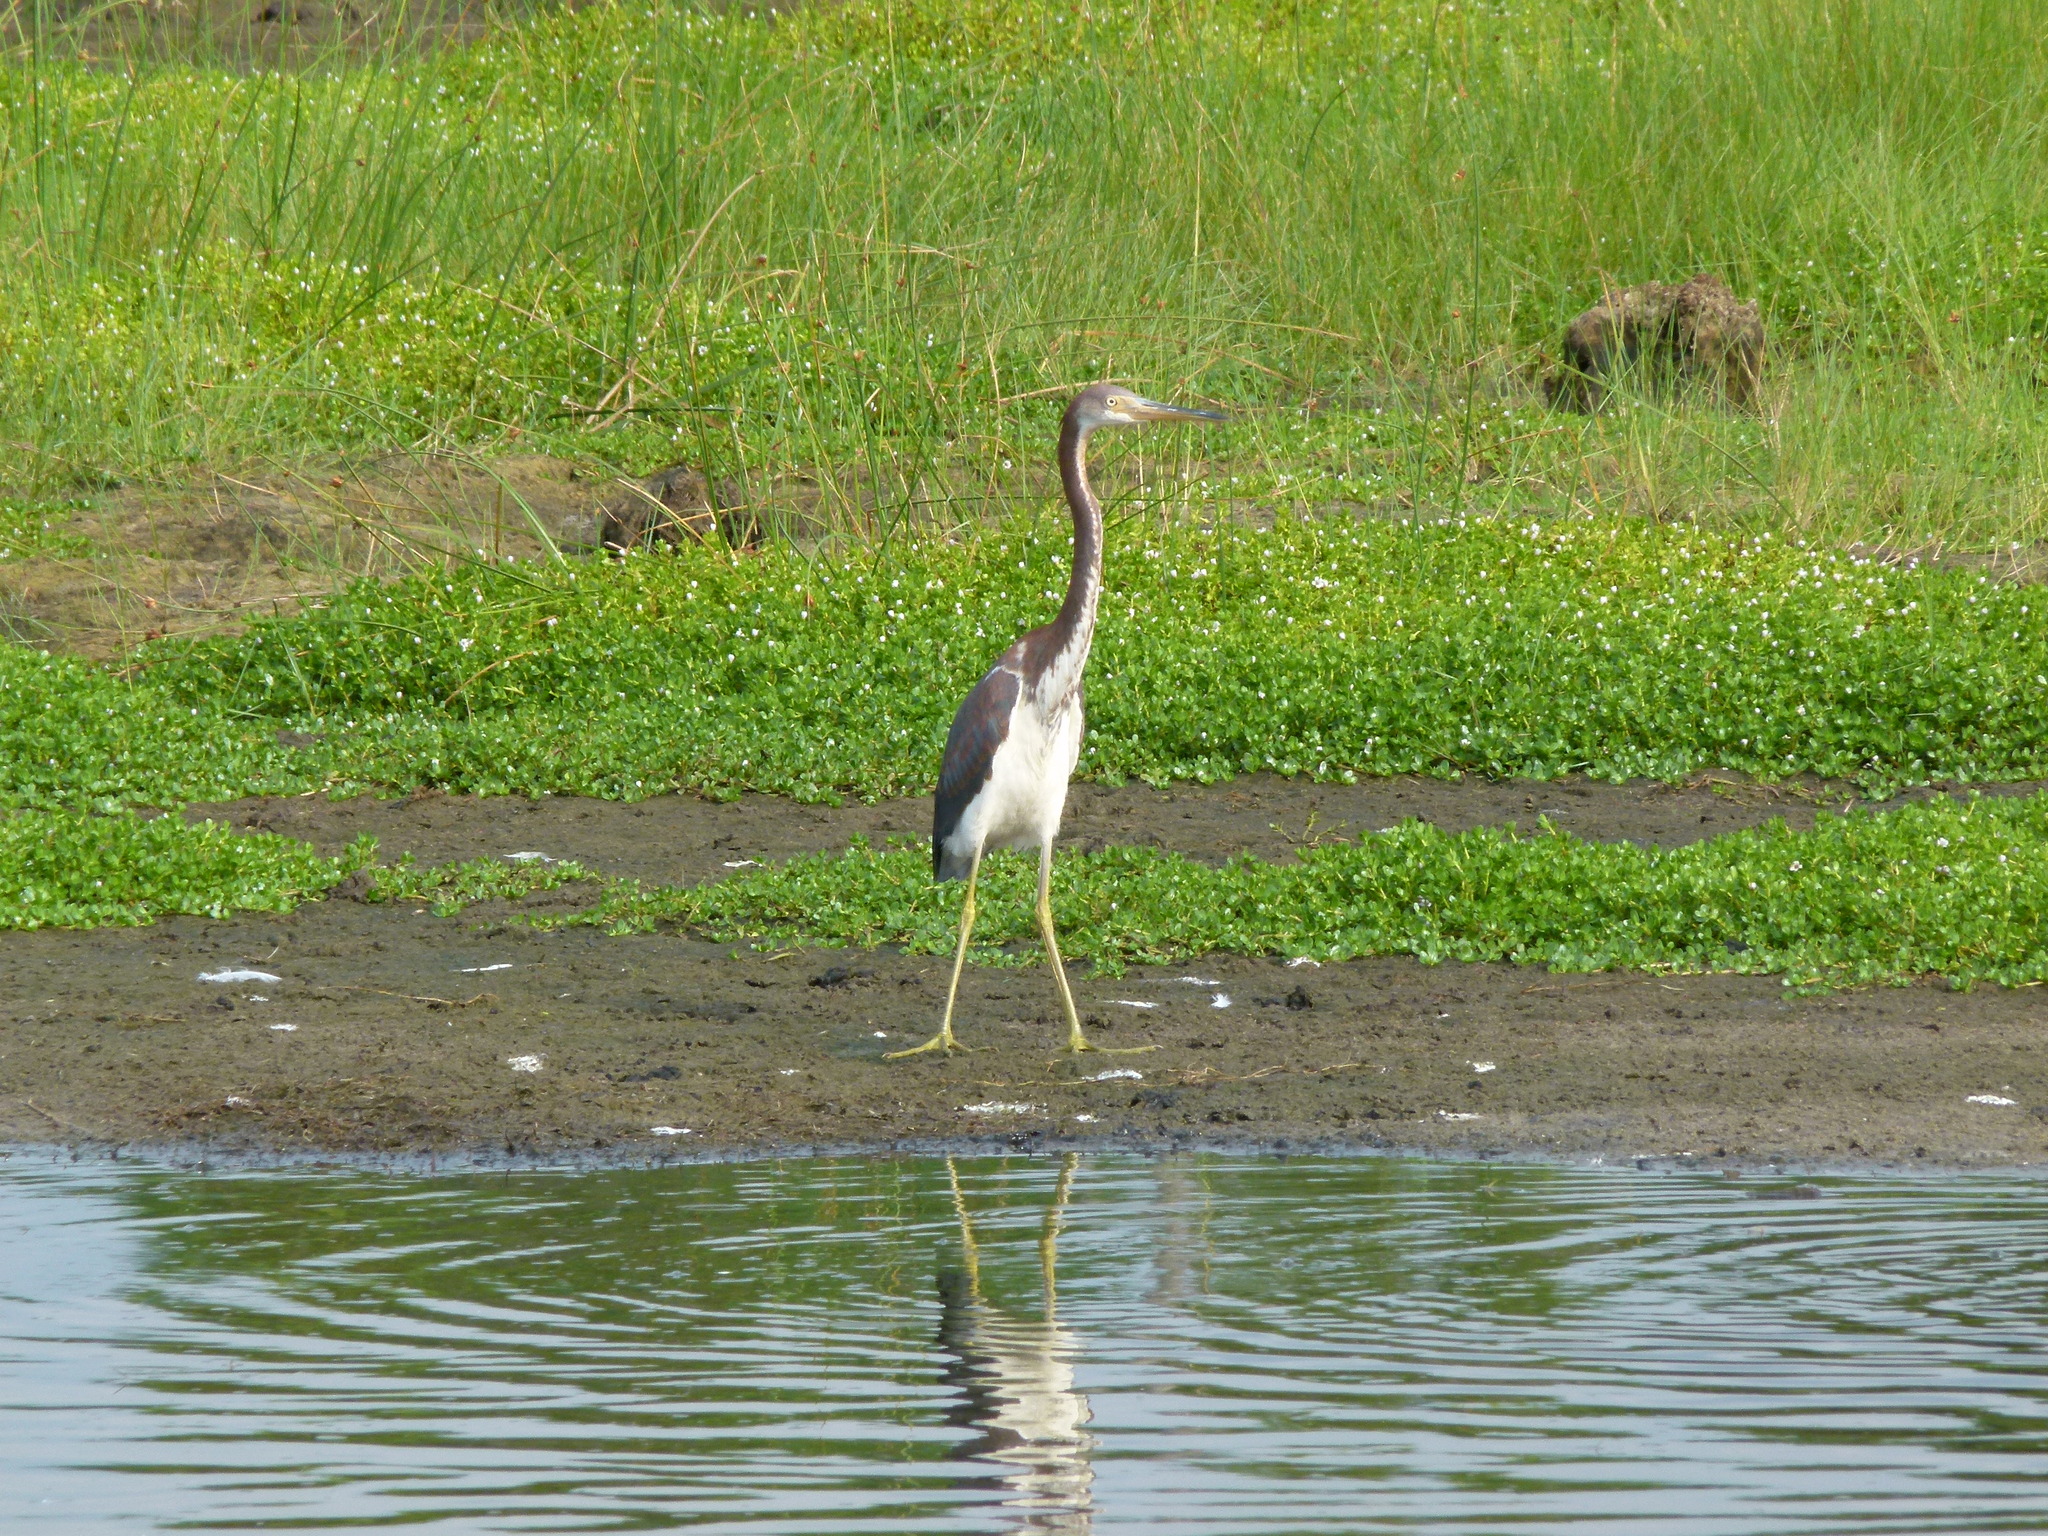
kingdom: Animalia
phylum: Chordata
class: Aves
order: Pelecaniformes
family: Ardeidae
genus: Egretta
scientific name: Egretta tricolor
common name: Tricolored heron
